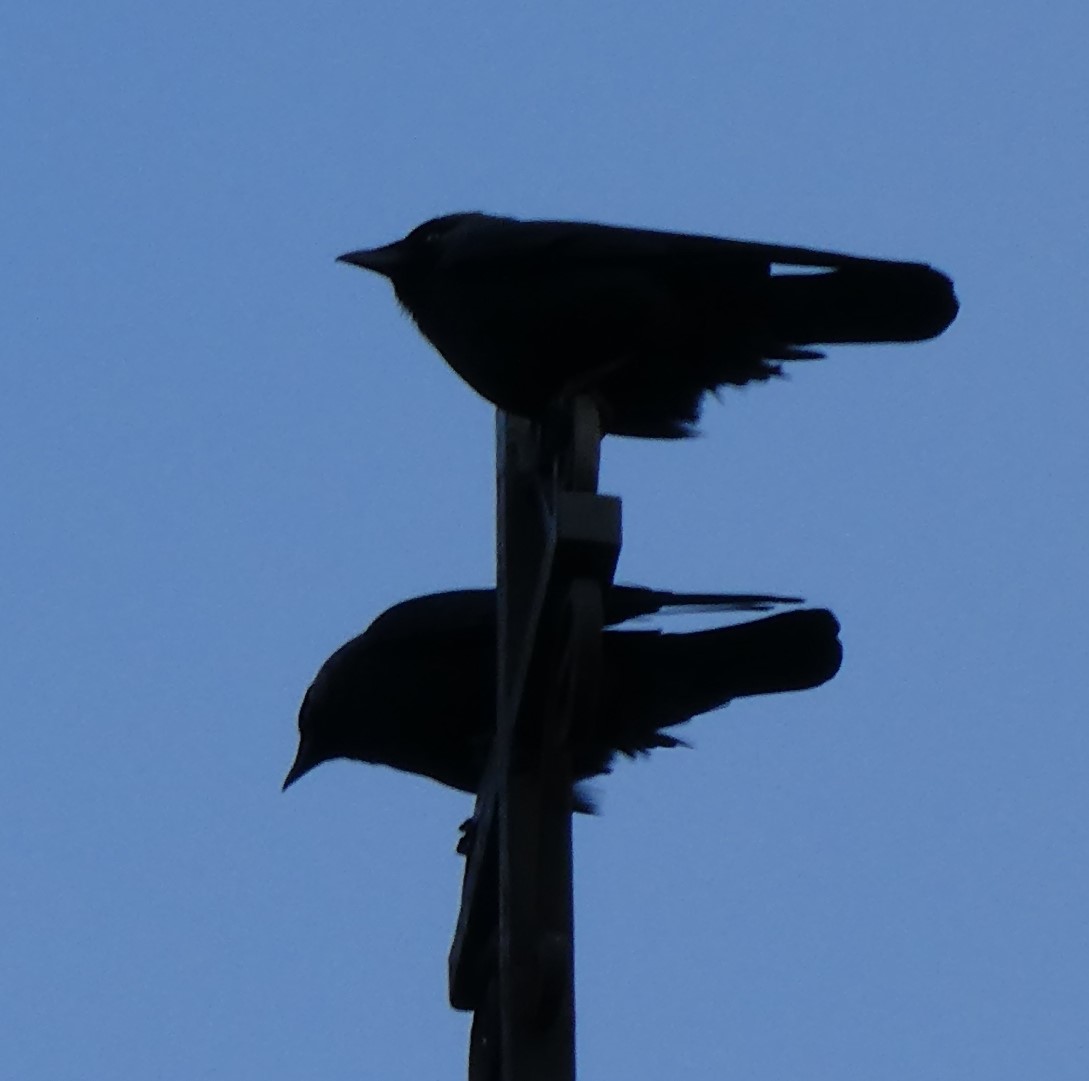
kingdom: Animalia
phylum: Chordata
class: Aves
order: Passeriformes
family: Corvidae
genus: Coloeus
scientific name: Coloeus monedula
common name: Western jackdaw
